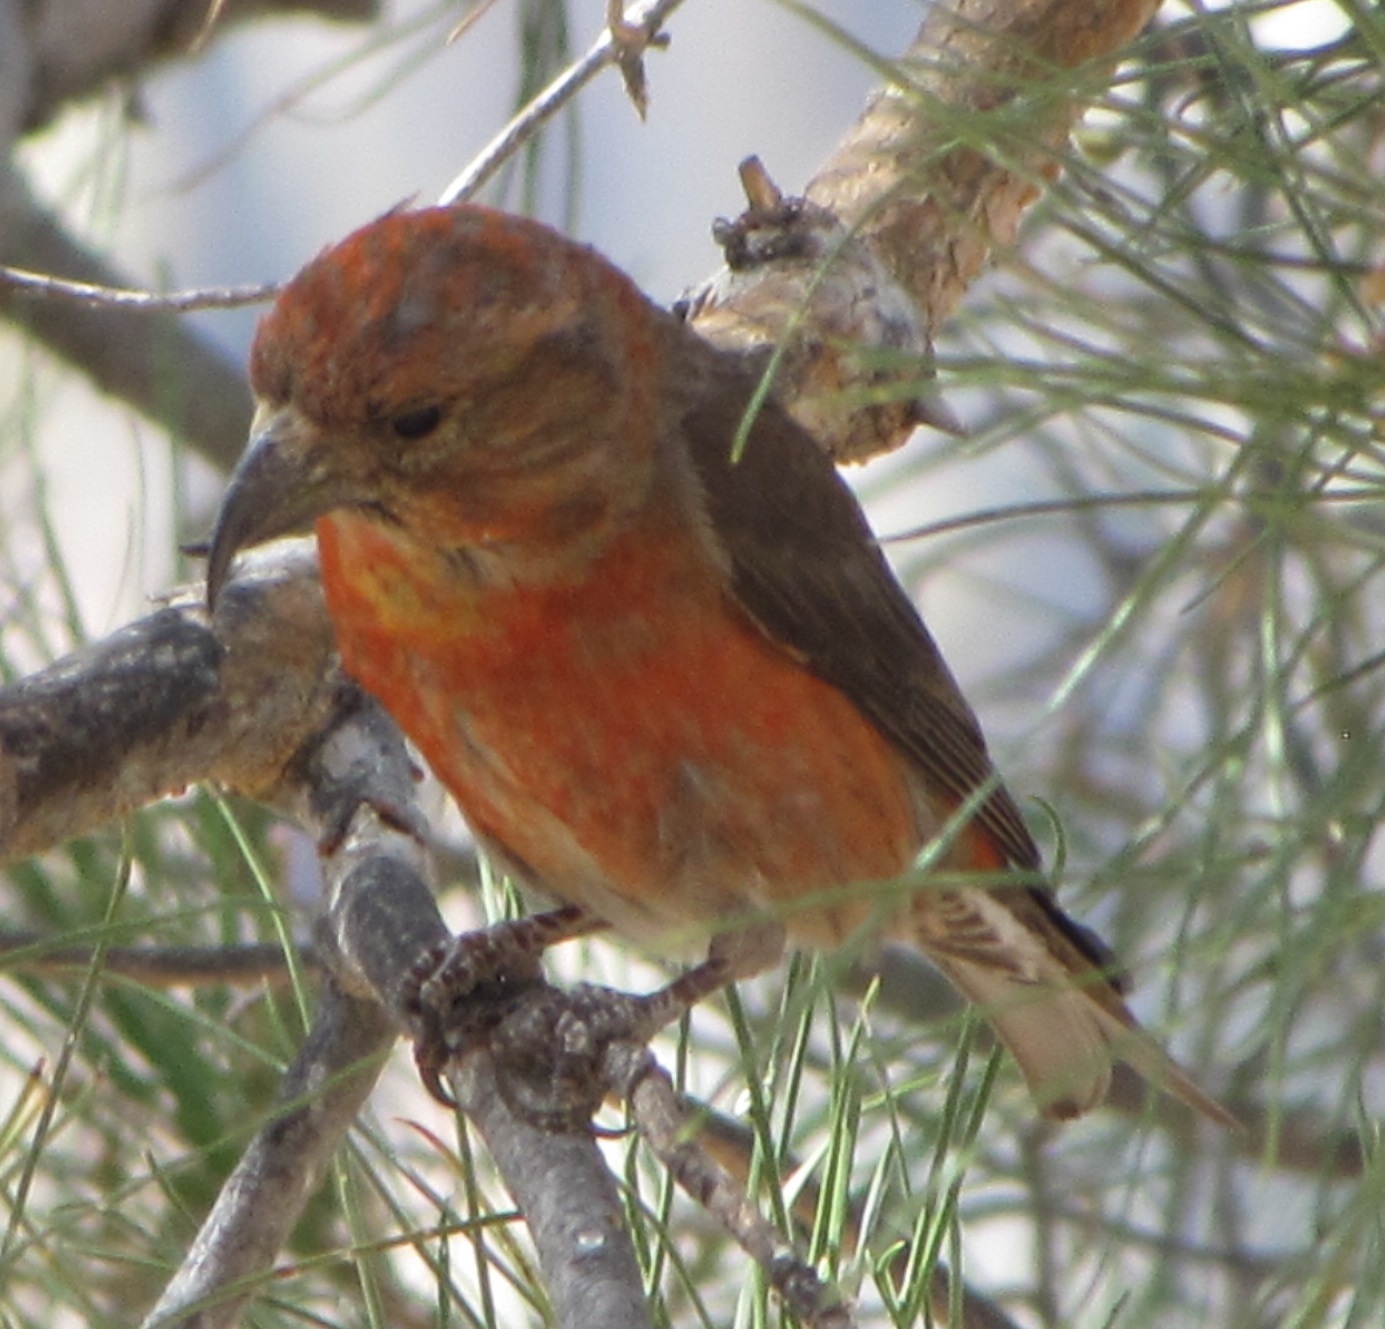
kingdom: Animalia
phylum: Chordata
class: Aves
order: Passeriformes
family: Fringillidae
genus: Loxia
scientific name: Loxia curvirostra
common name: Red crossbill
